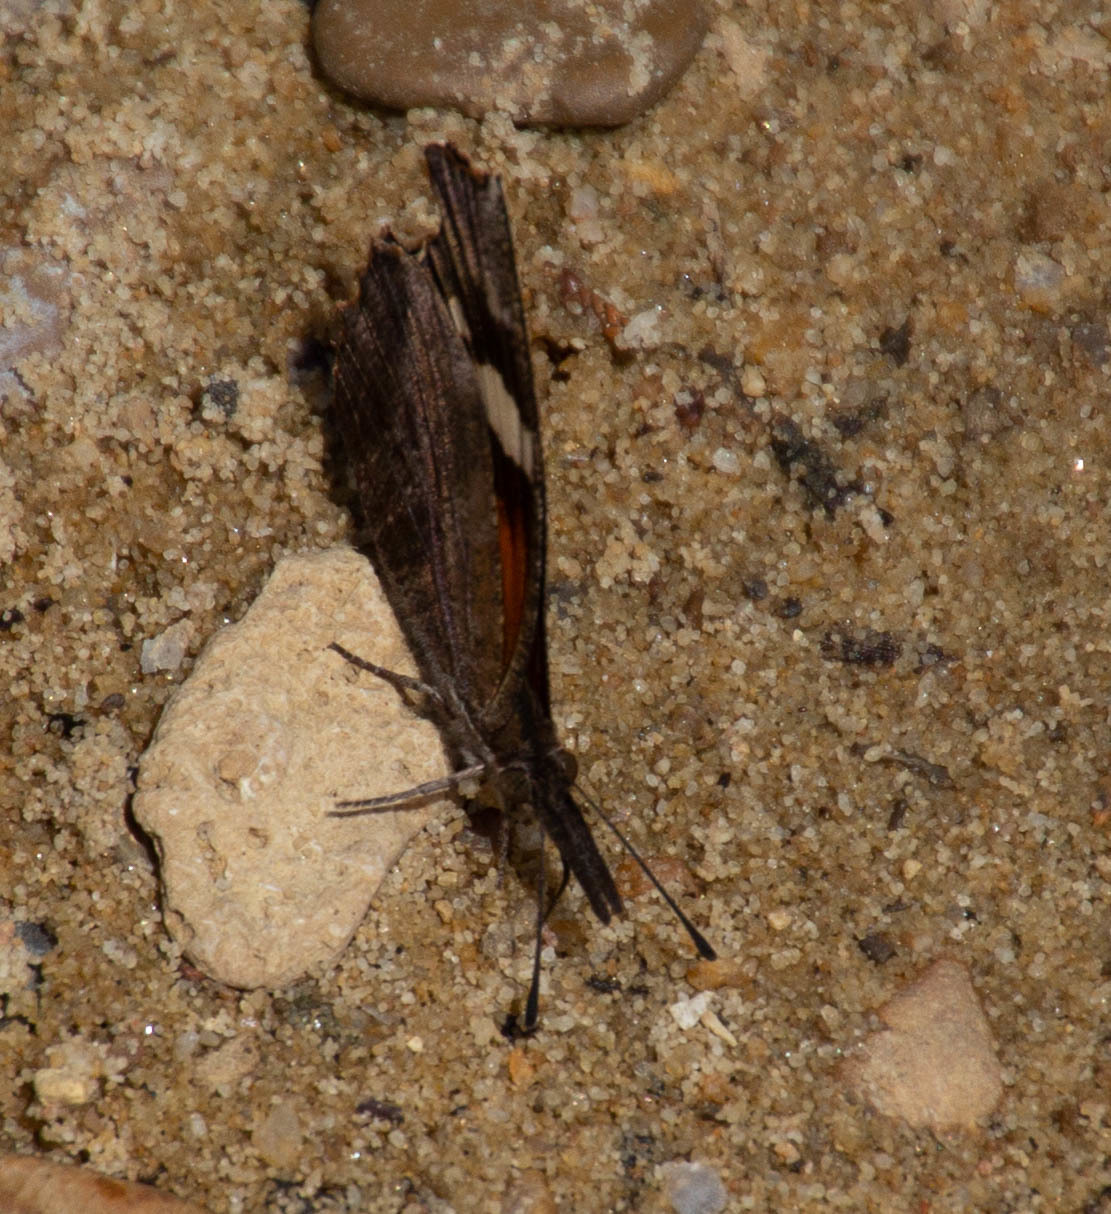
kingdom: Animalia
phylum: Arthropoda
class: Insecta
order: Lepidoptera
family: Nymphalidae
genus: Libytheana
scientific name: Libytheana carinenta
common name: American snout
